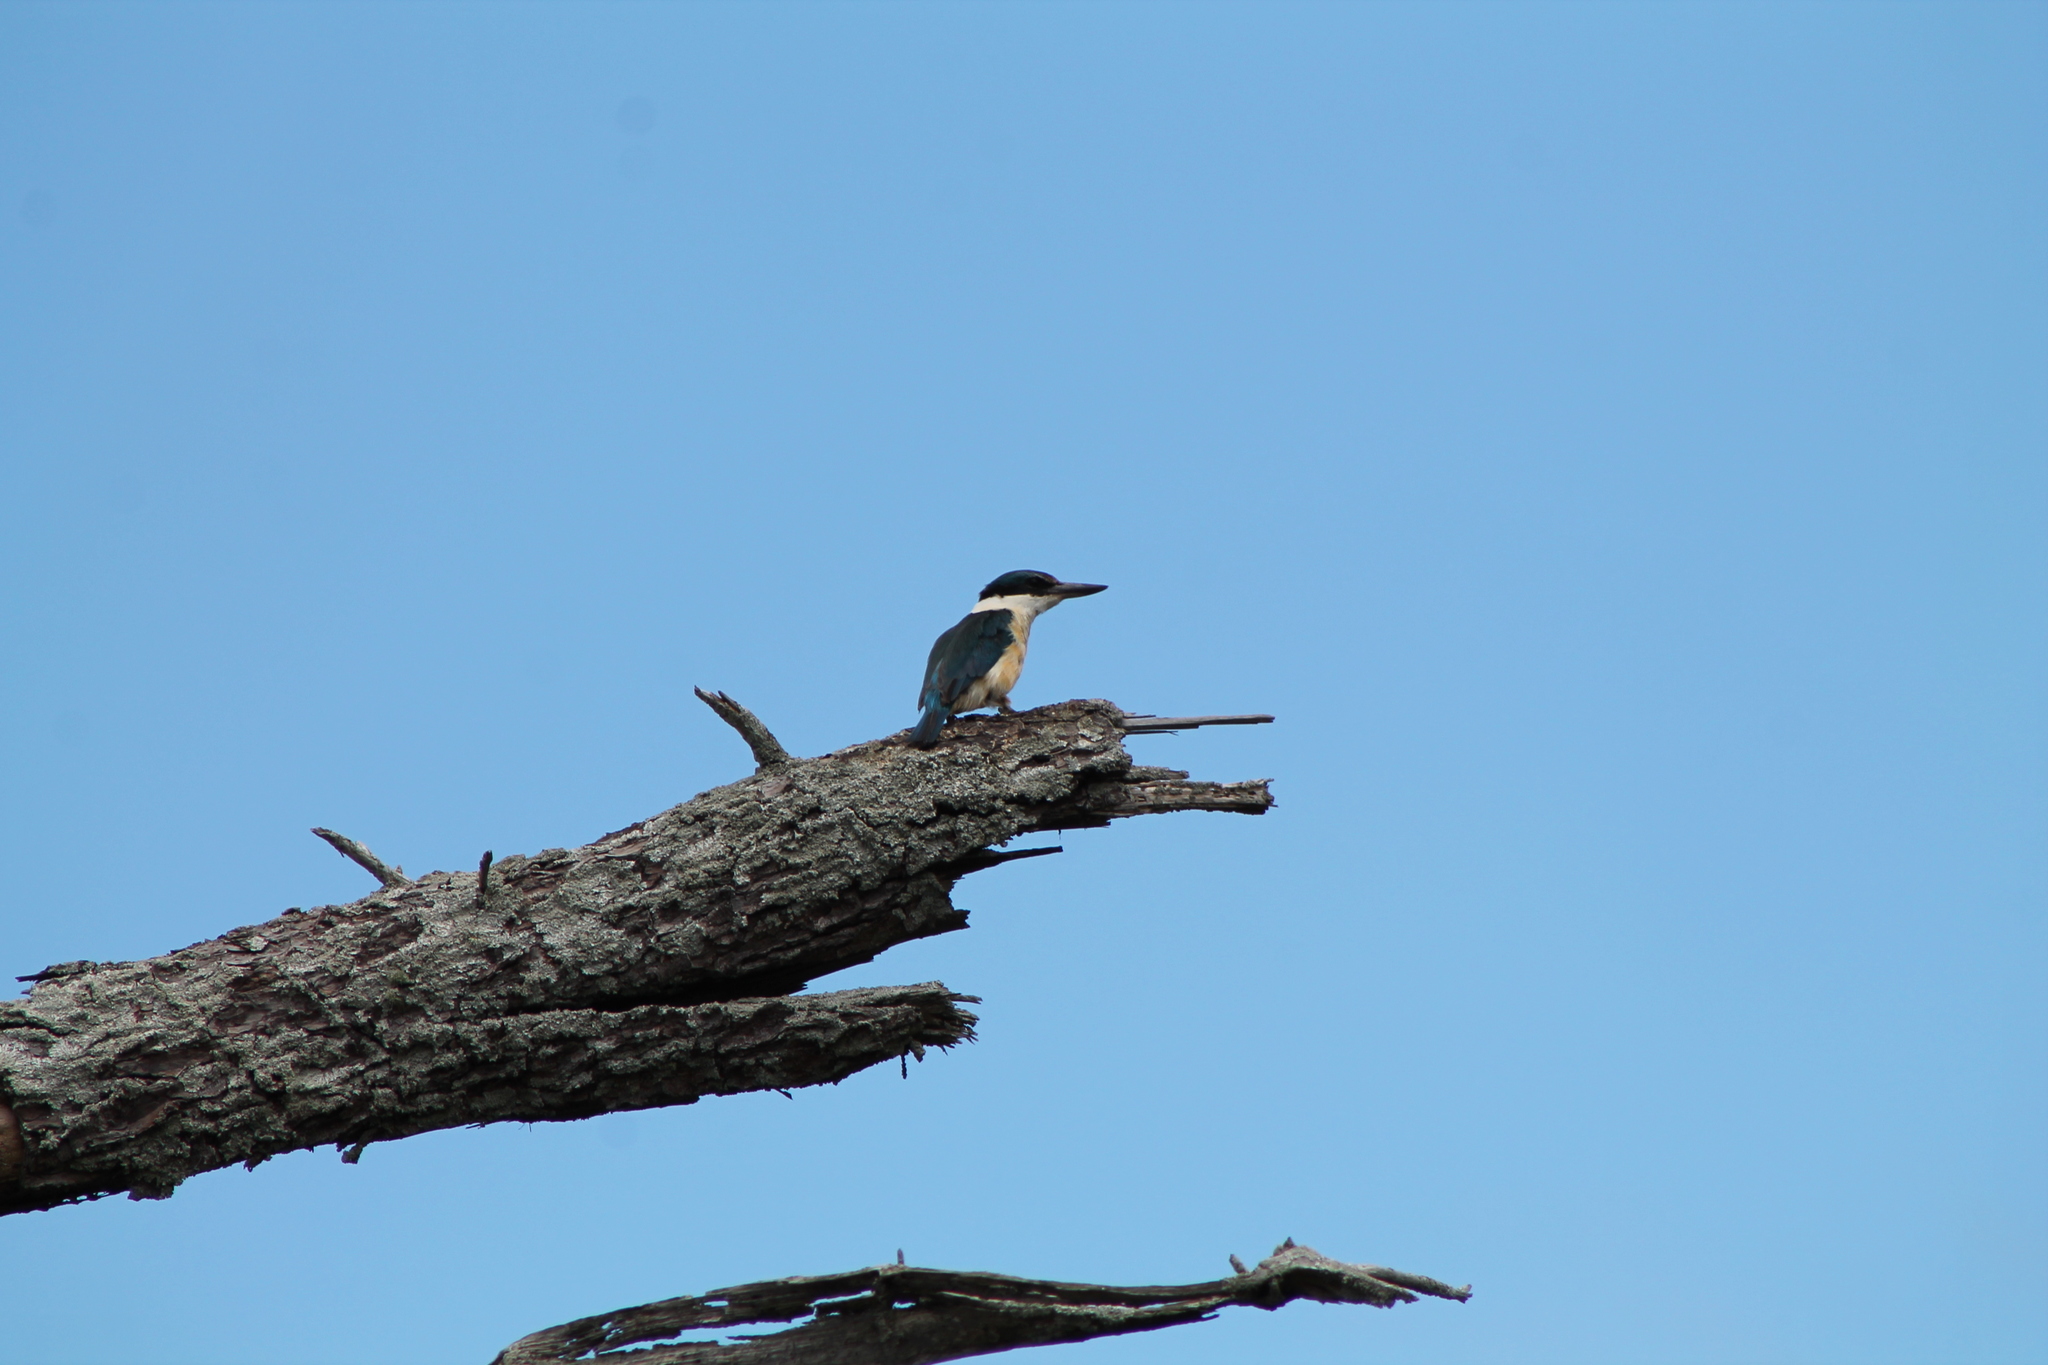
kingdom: Animalia
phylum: Chordata
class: Aves
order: Coraciiformes
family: Alcedinidae
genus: Todiramphus
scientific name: Todiramphus sanctus
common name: Sacred kingfisher
